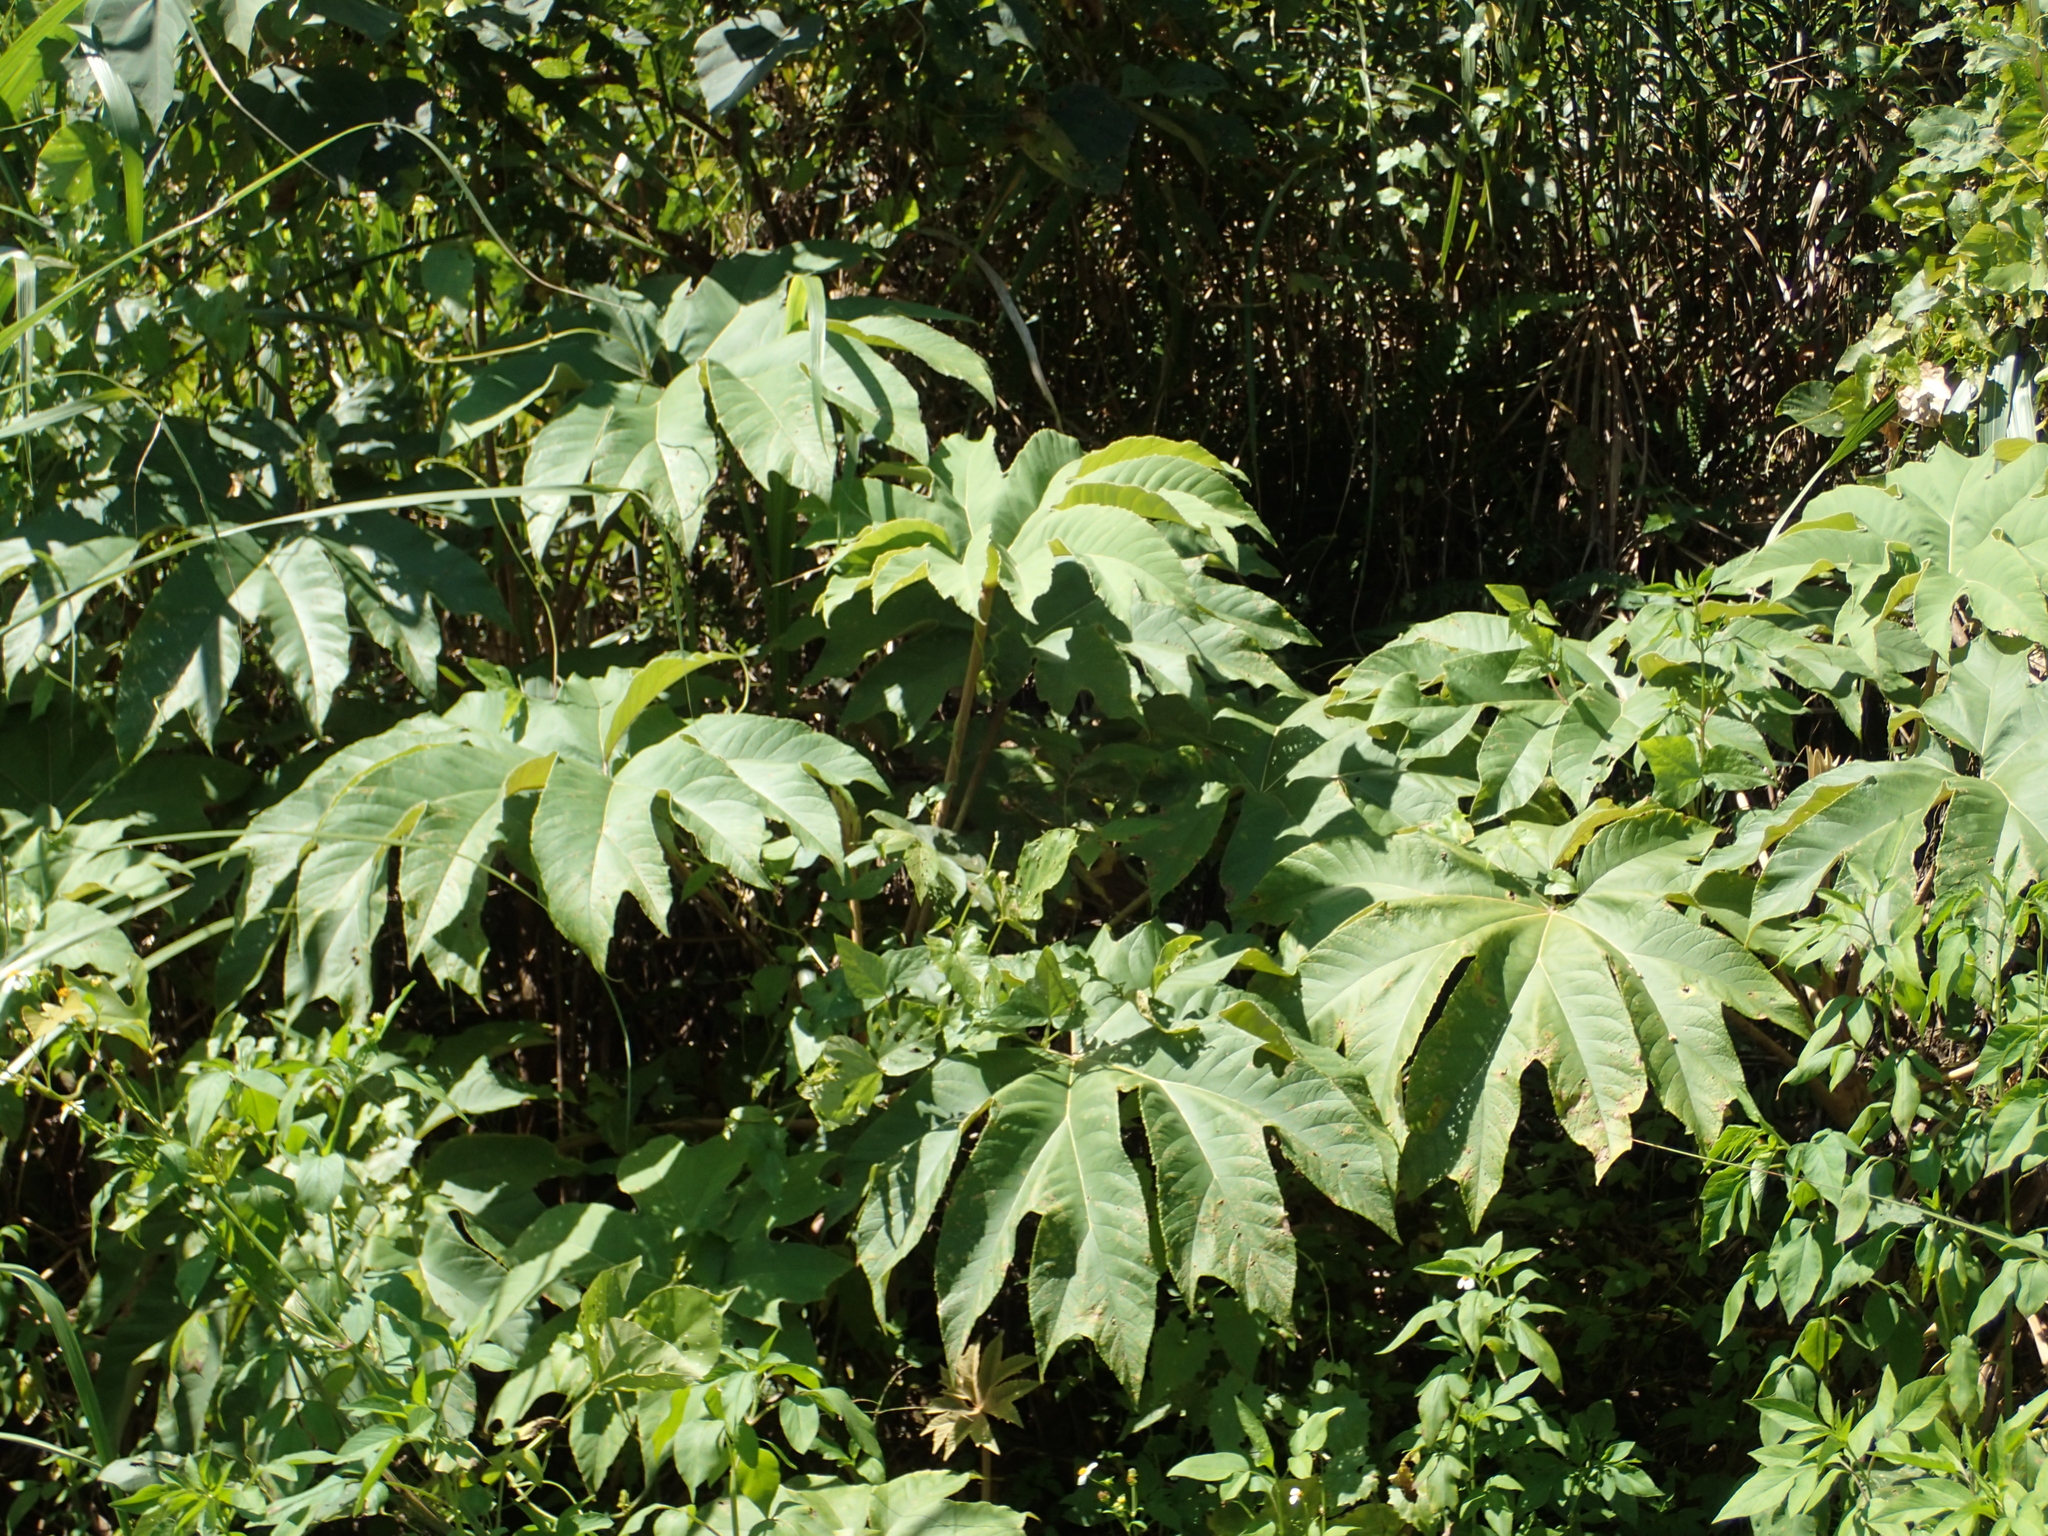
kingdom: Plantae
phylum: Tracheophyta
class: Magnoliopsida
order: Apiales
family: Araliaceae
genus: Tetrapanax
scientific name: Tetrapanax papyrifer
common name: Rice-paper plant
